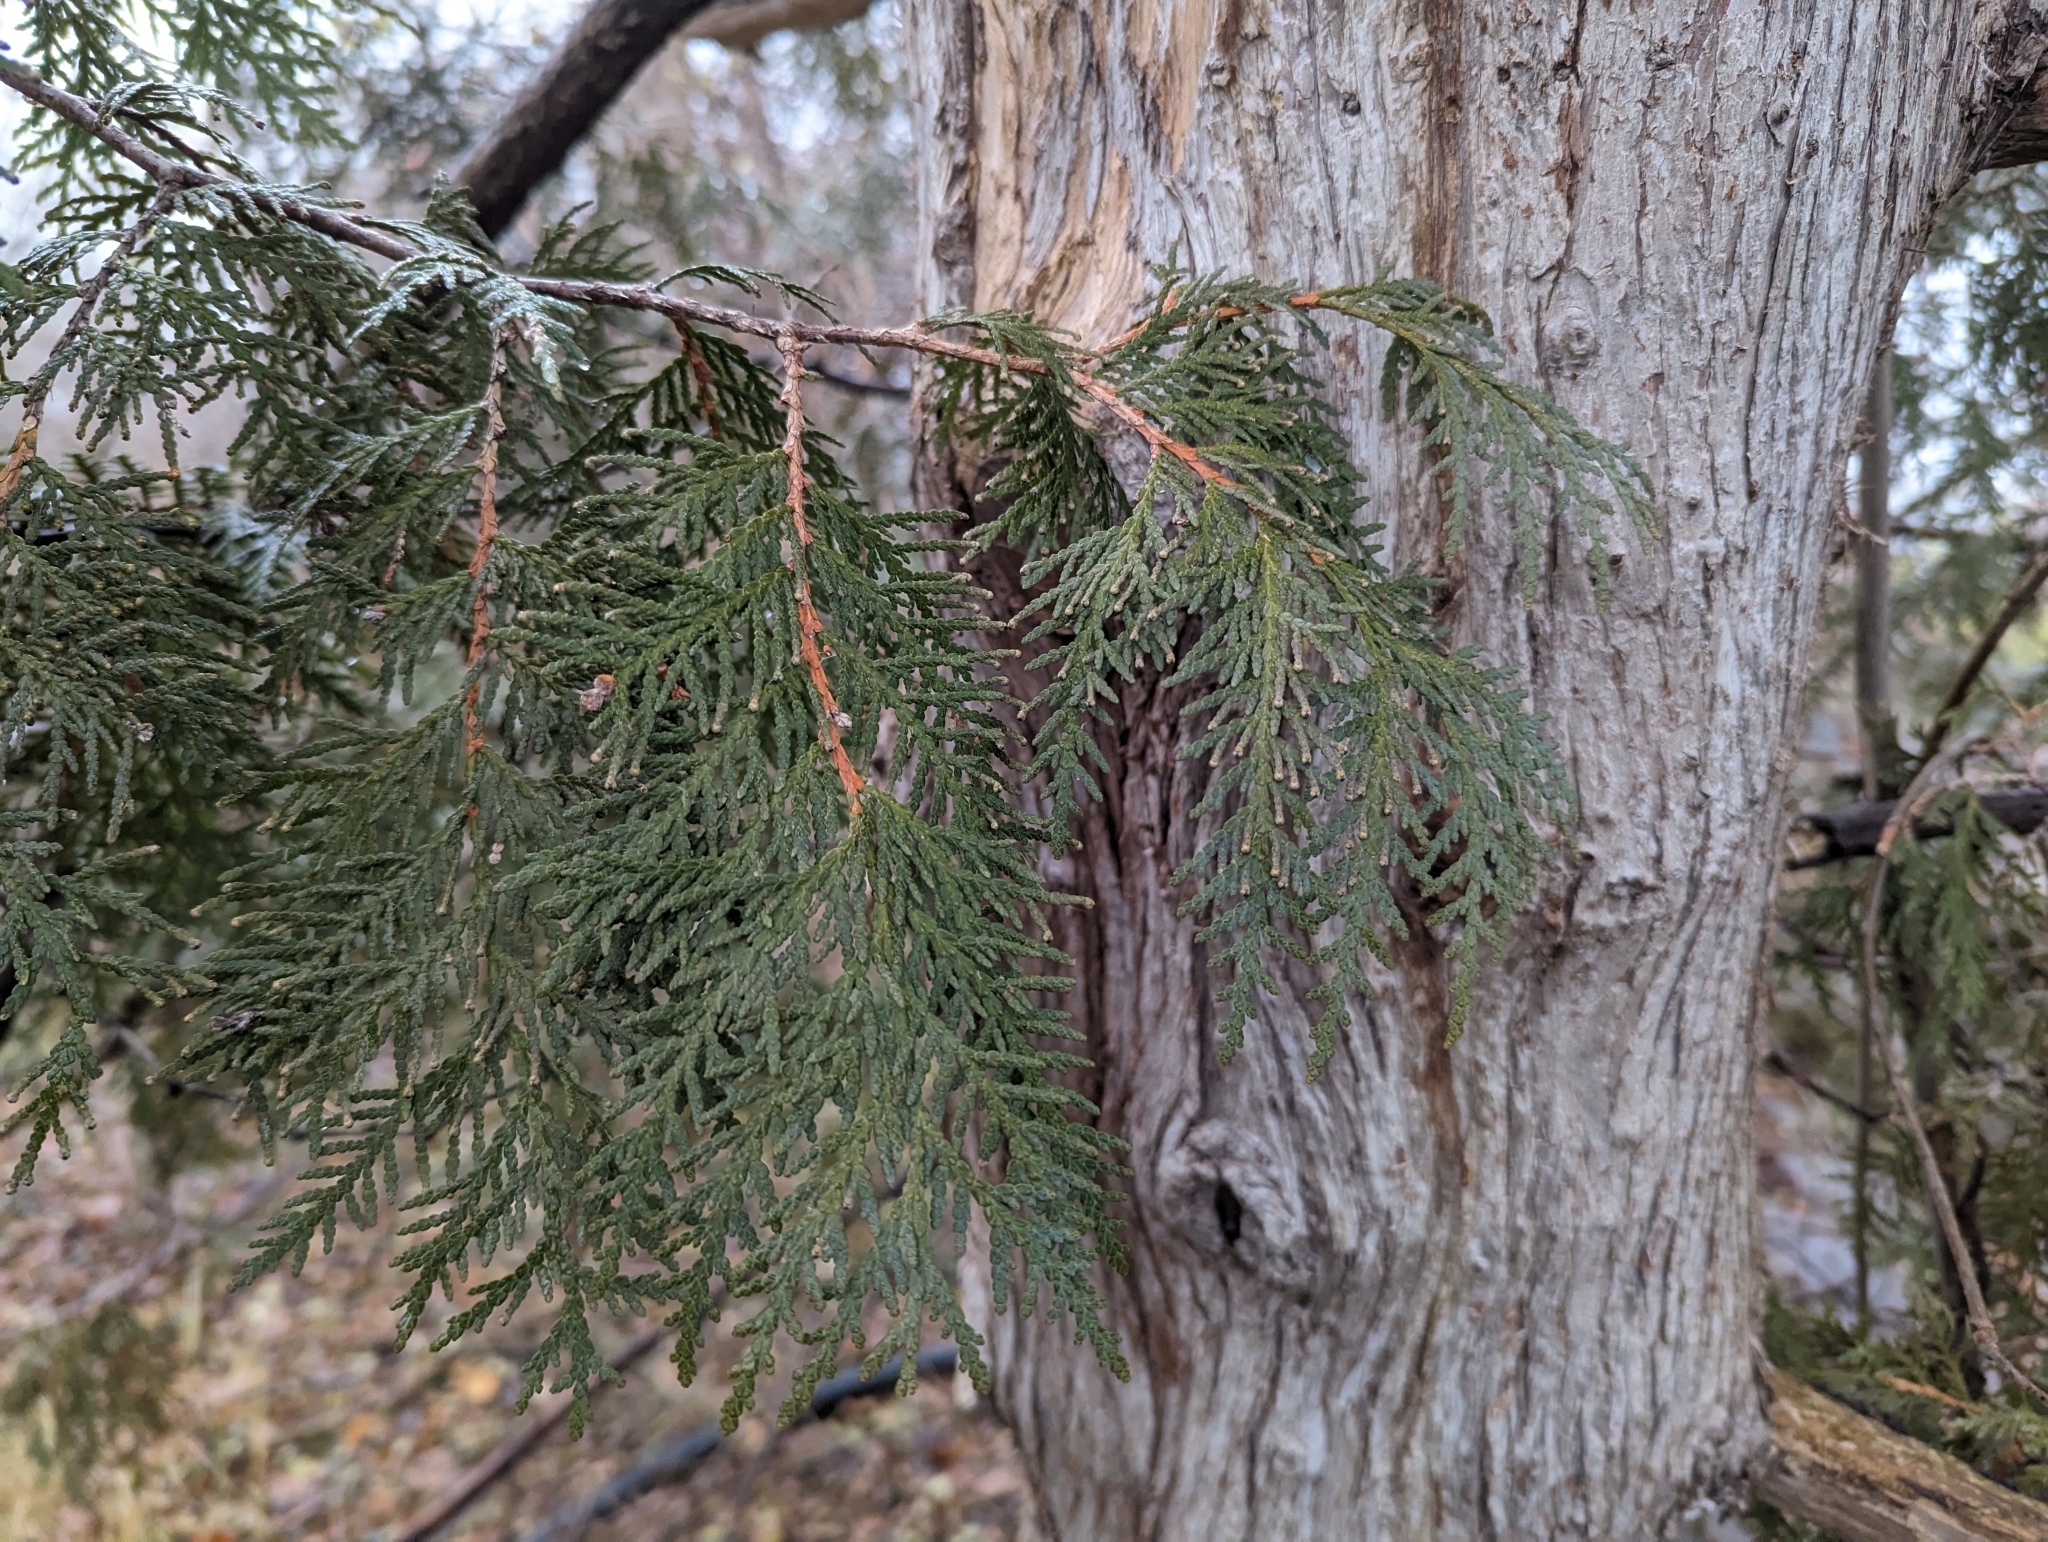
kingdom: Plantae
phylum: Tracheophyta
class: Pinopsida
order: Pinales
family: Cupressaceae
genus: Thuja
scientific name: Thuja occidentalis
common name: Northern white-cedar
